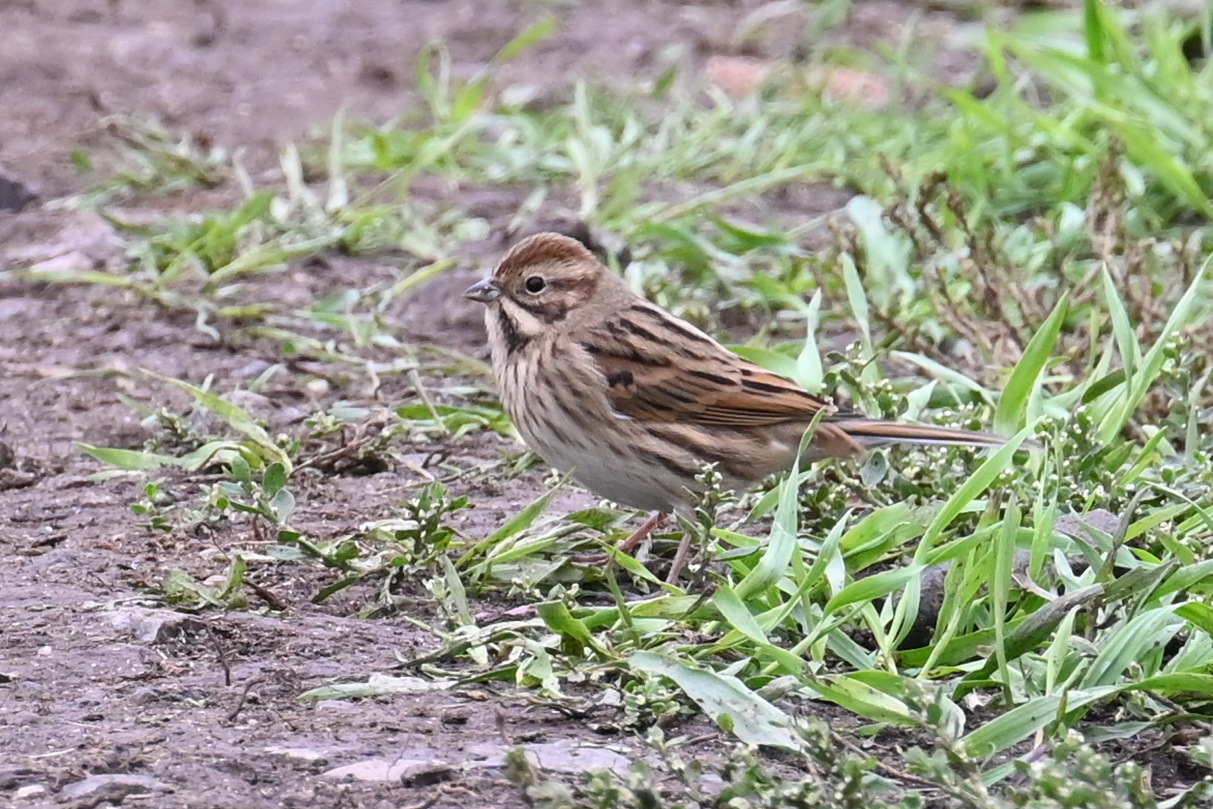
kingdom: Animalia
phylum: Chordata
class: Aves
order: Passeriformes
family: Emberizidae
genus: Emberiza
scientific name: Emberiza schoeniclus
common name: Reed bunting
